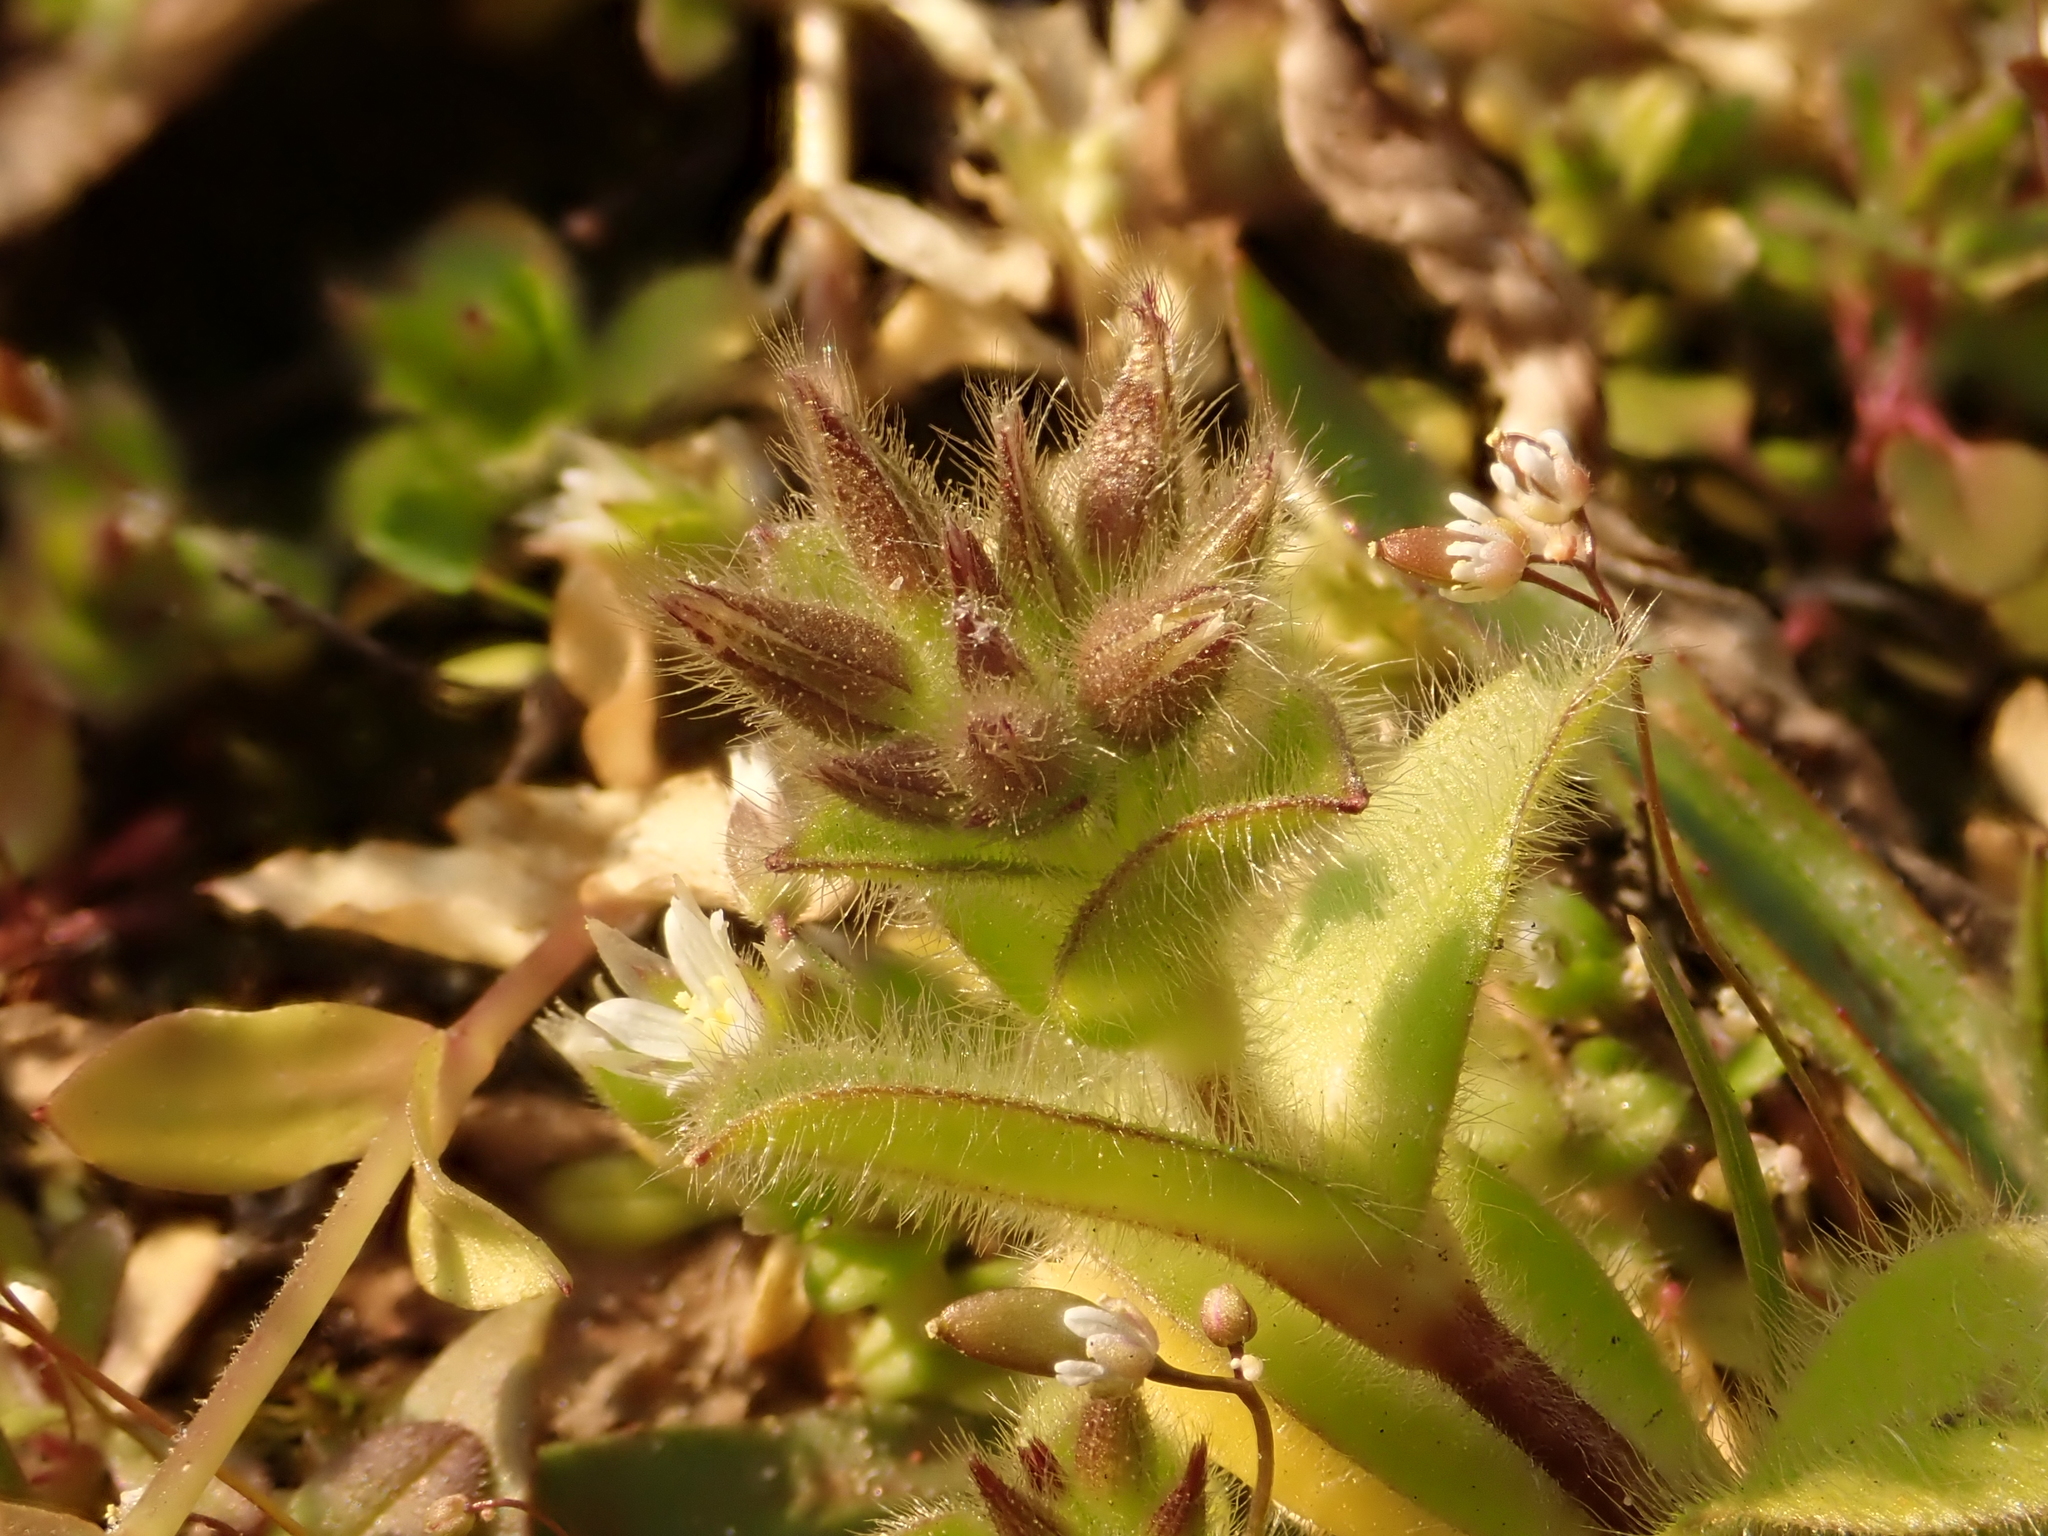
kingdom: Plantae
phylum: Tracheophyta
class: Magnoliopsida
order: Caryophyllales
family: Caryophyllaceae
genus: Cerastium
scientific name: Cerastium glomeratum
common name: Sticky chickweed
